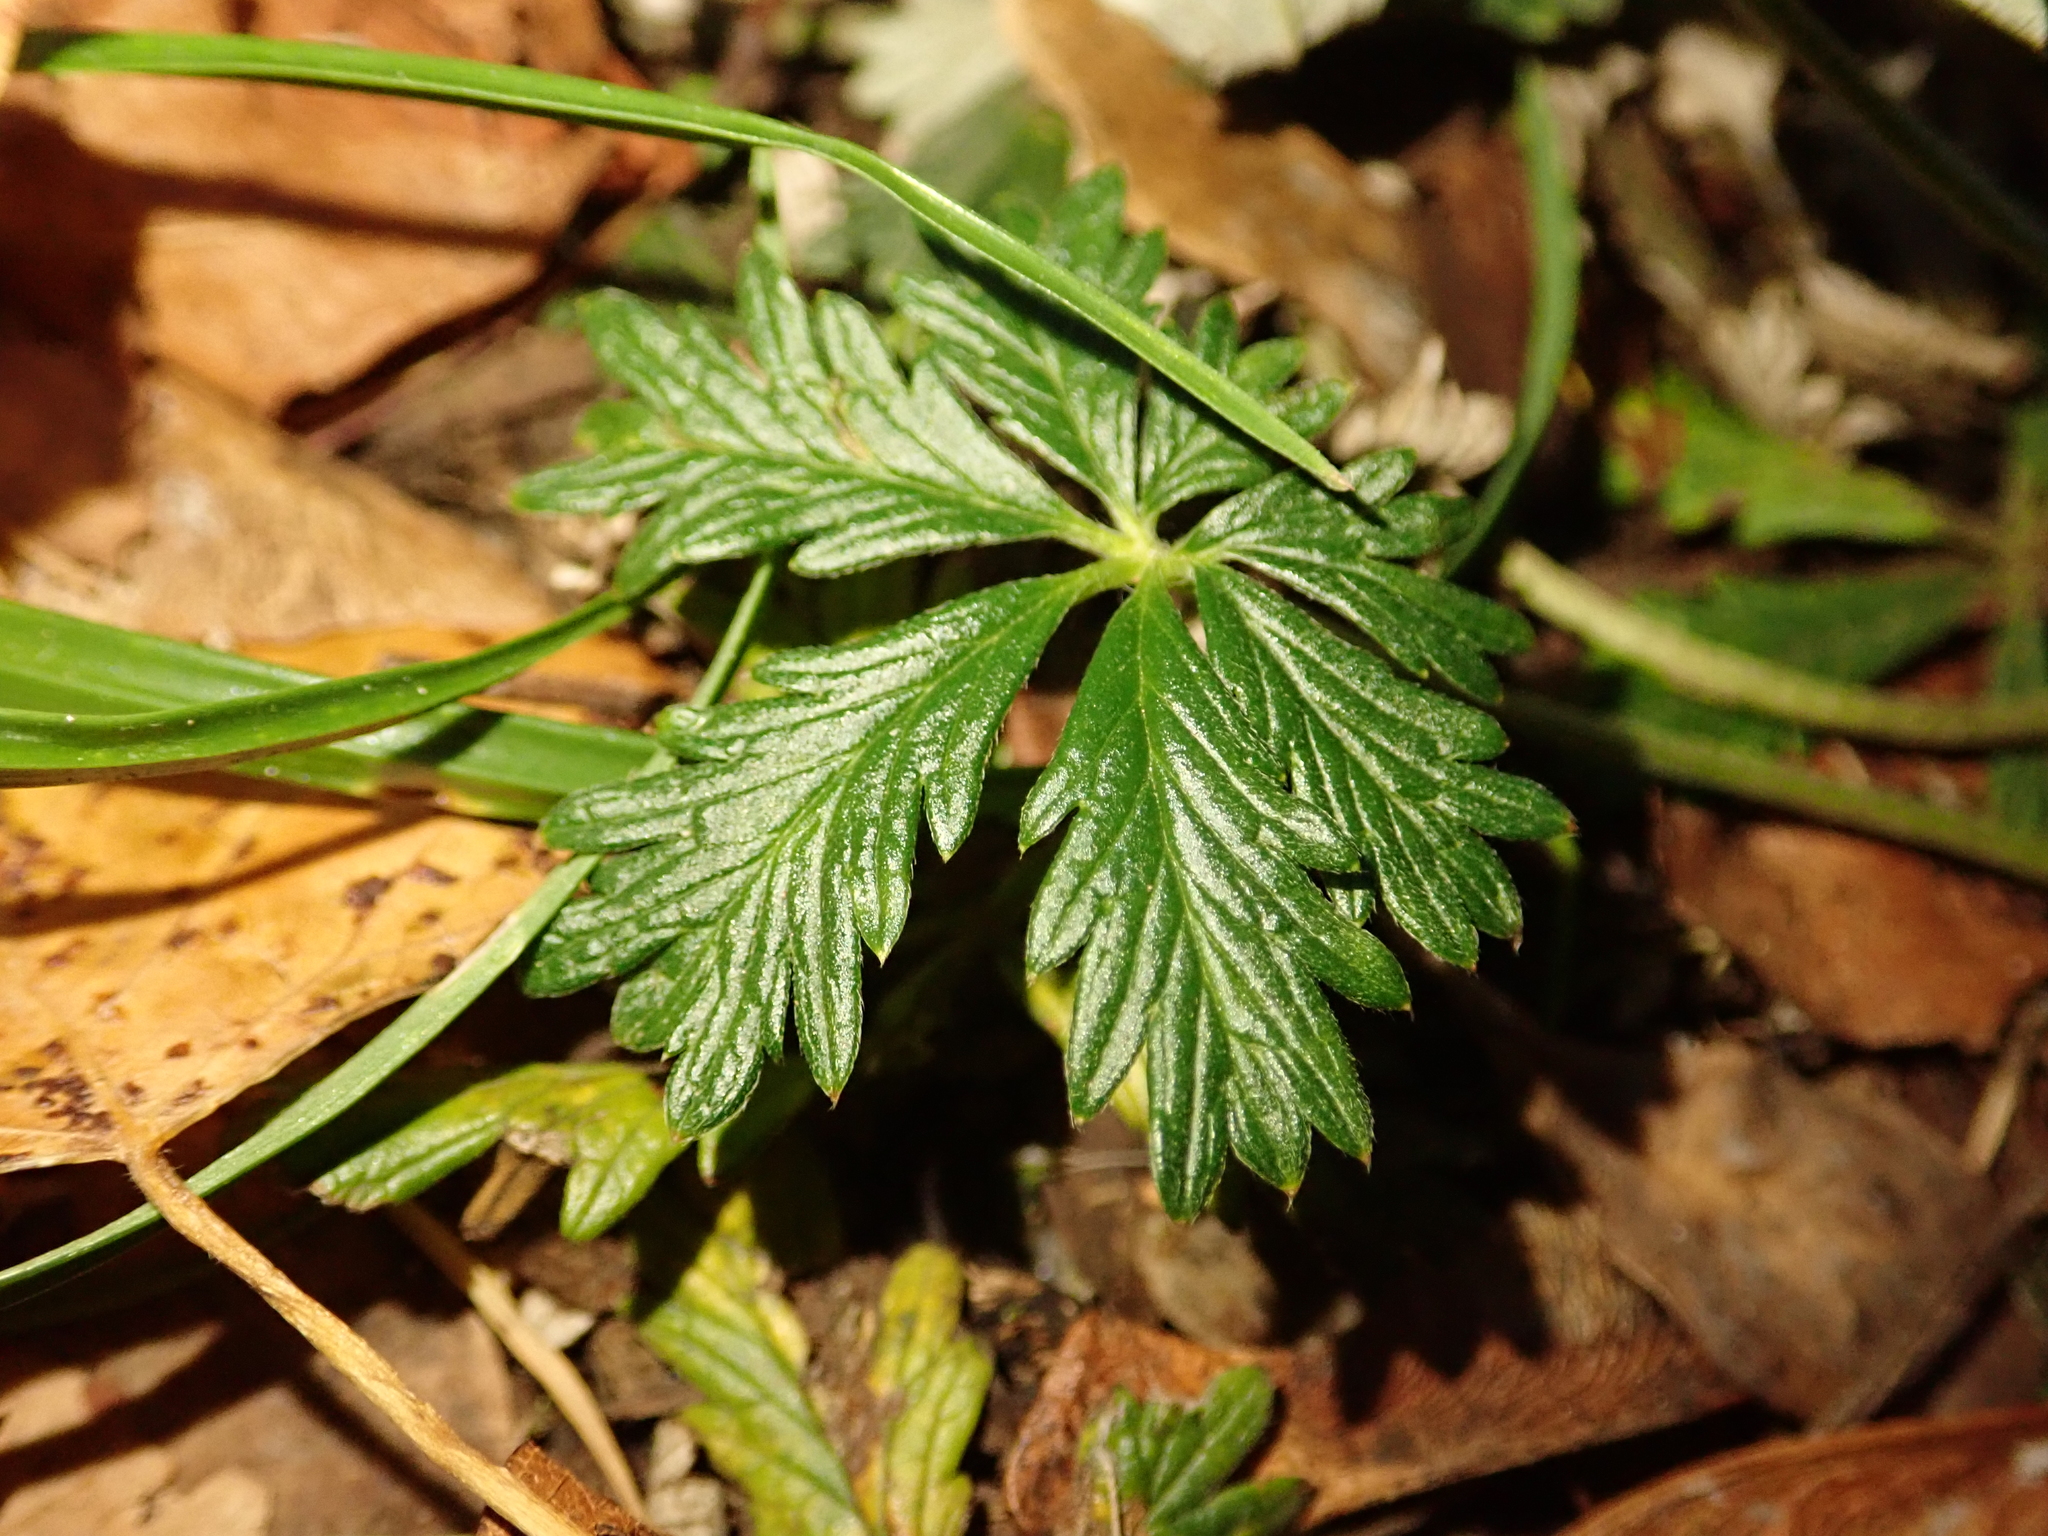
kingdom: Plantae
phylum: Tracheophyta
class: Magnoliopsida
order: Rosales
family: Rosaceae
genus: Potentilla
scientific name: Potentilla argentea
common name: Hoary cinquefoil
